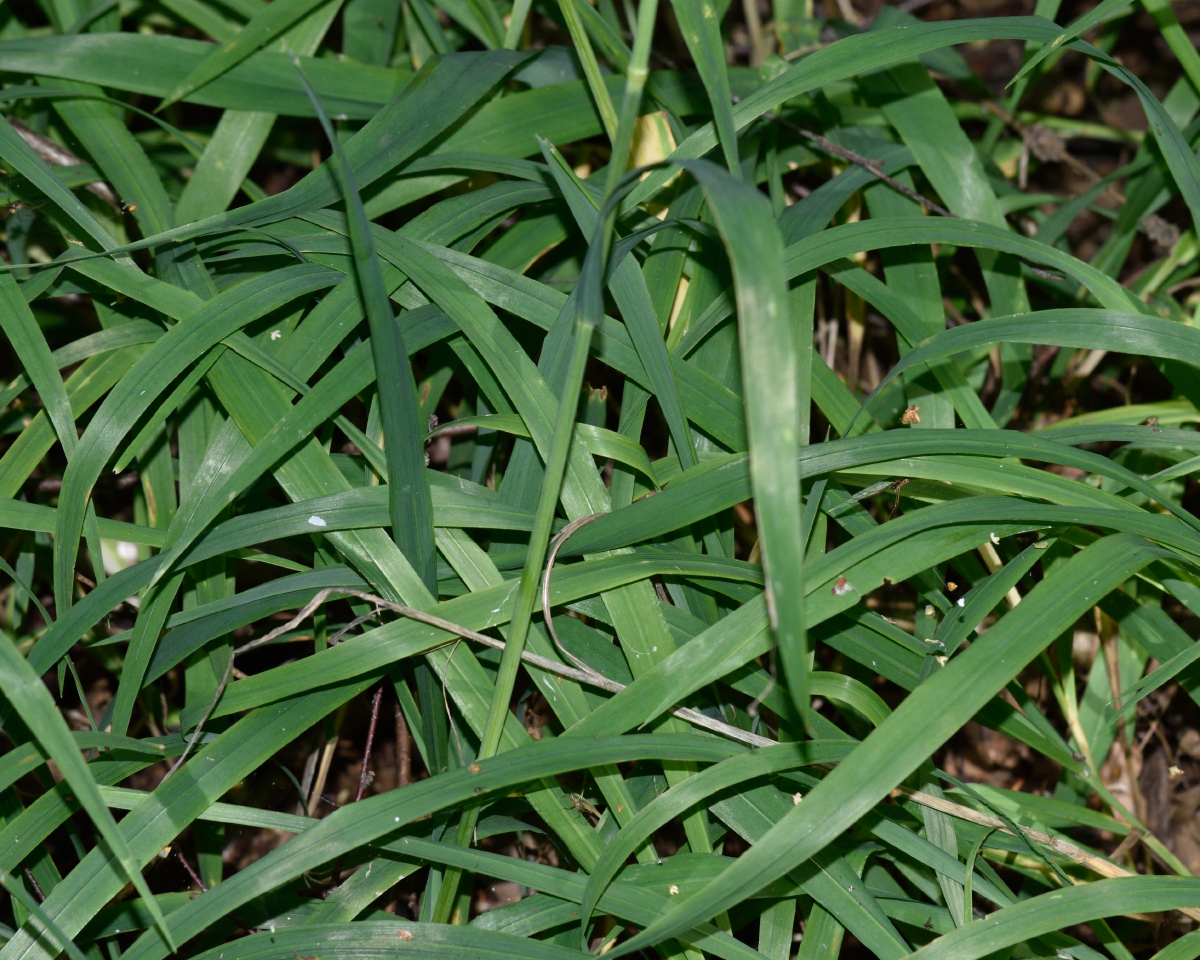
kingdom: Plantae
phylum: Tracheophyta
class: Liliopsida
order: Poales
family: Poaceae
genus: Milium
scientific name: Milium effusum
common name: Wood millet
